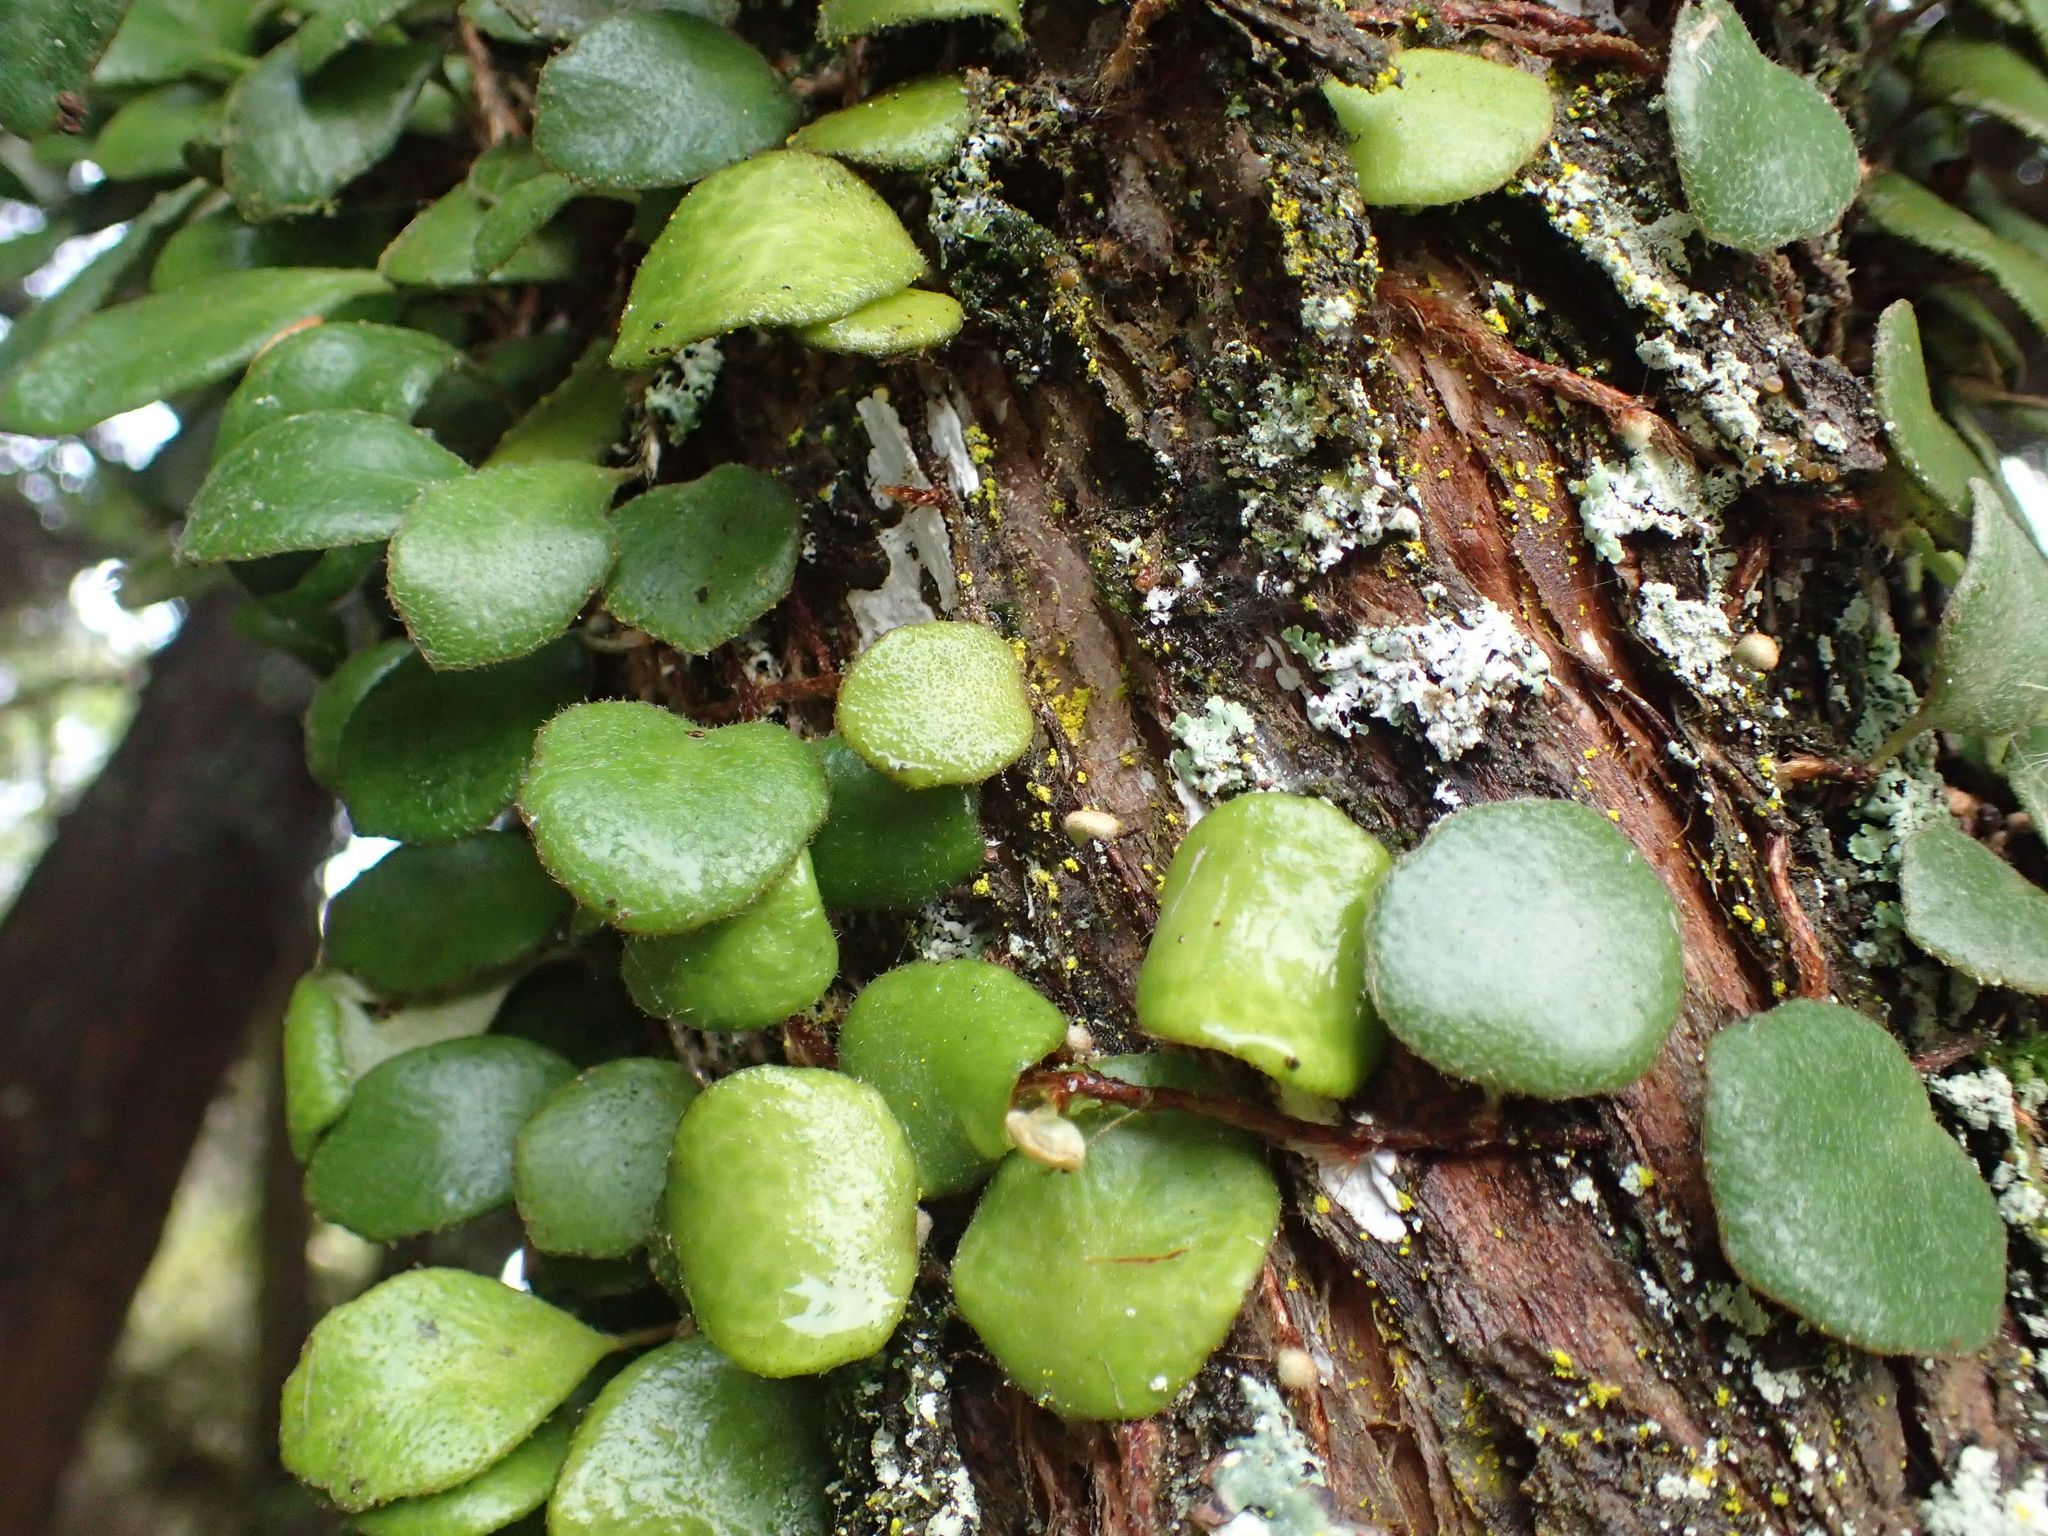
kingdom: Plantae
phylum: Tracheophyta
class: Polypodiopsida
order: Polypodiales
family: Polypodiaceae
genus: Pyrrosia
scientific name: Pyrrosia eleagnifolia
